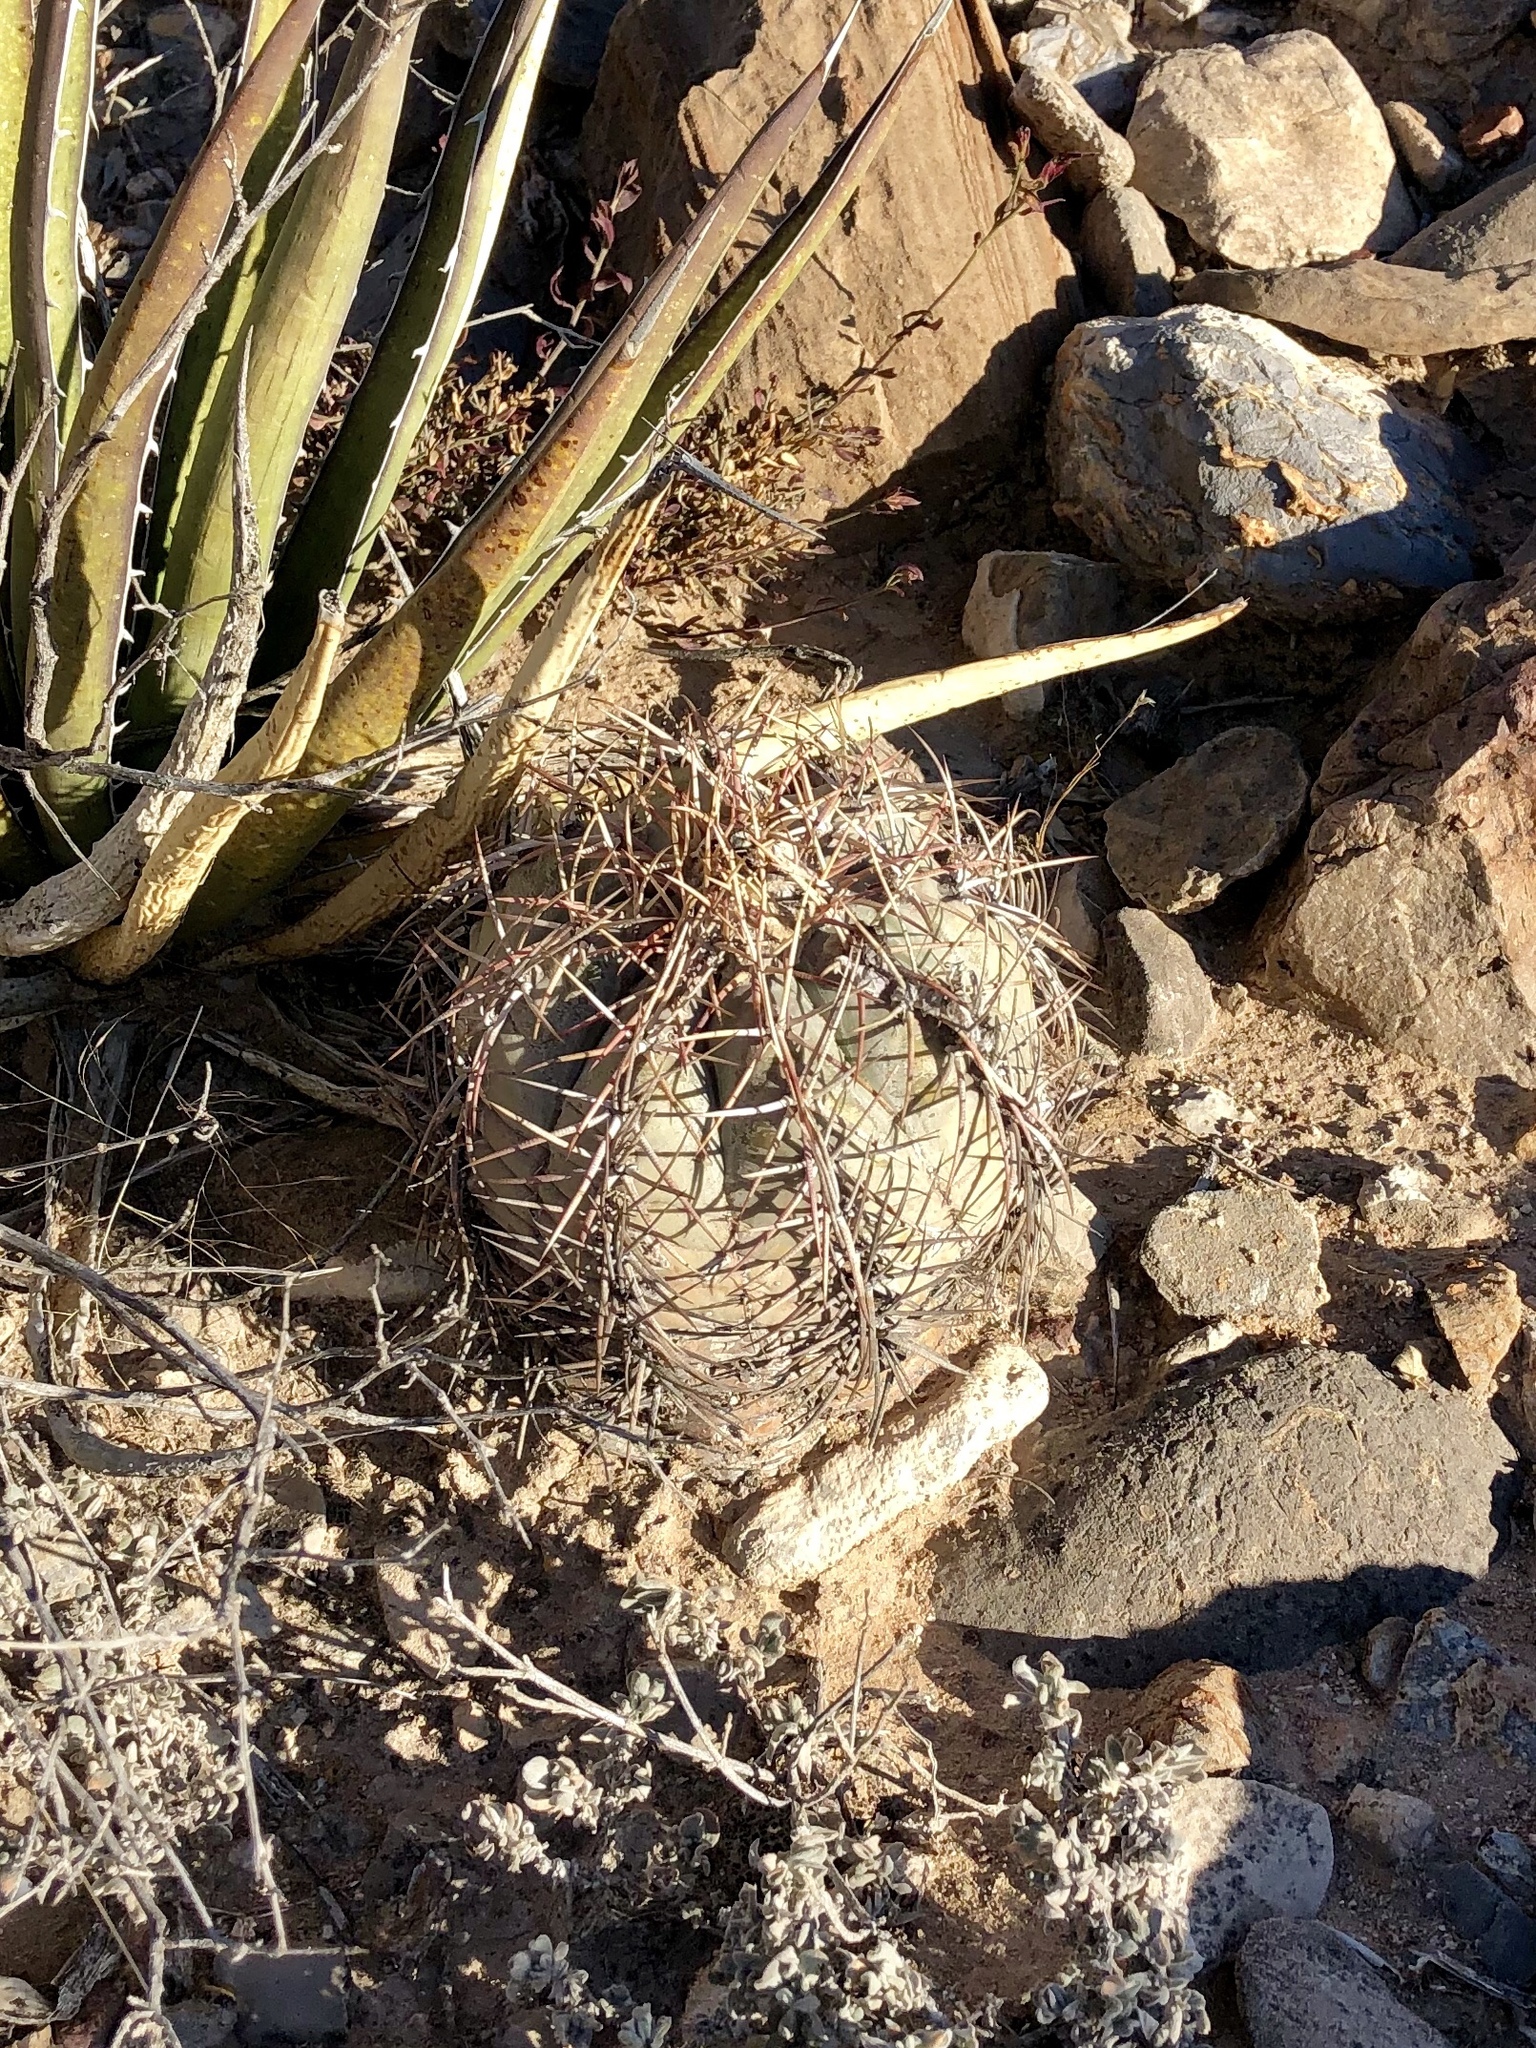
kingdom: Plantae
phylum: Tracheophyta
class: Magnoliopsida
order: Caryophyllales
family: Cactaceae
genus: Echinocactus
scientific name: Echinocactus horizonthalonius
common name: Devilshead
